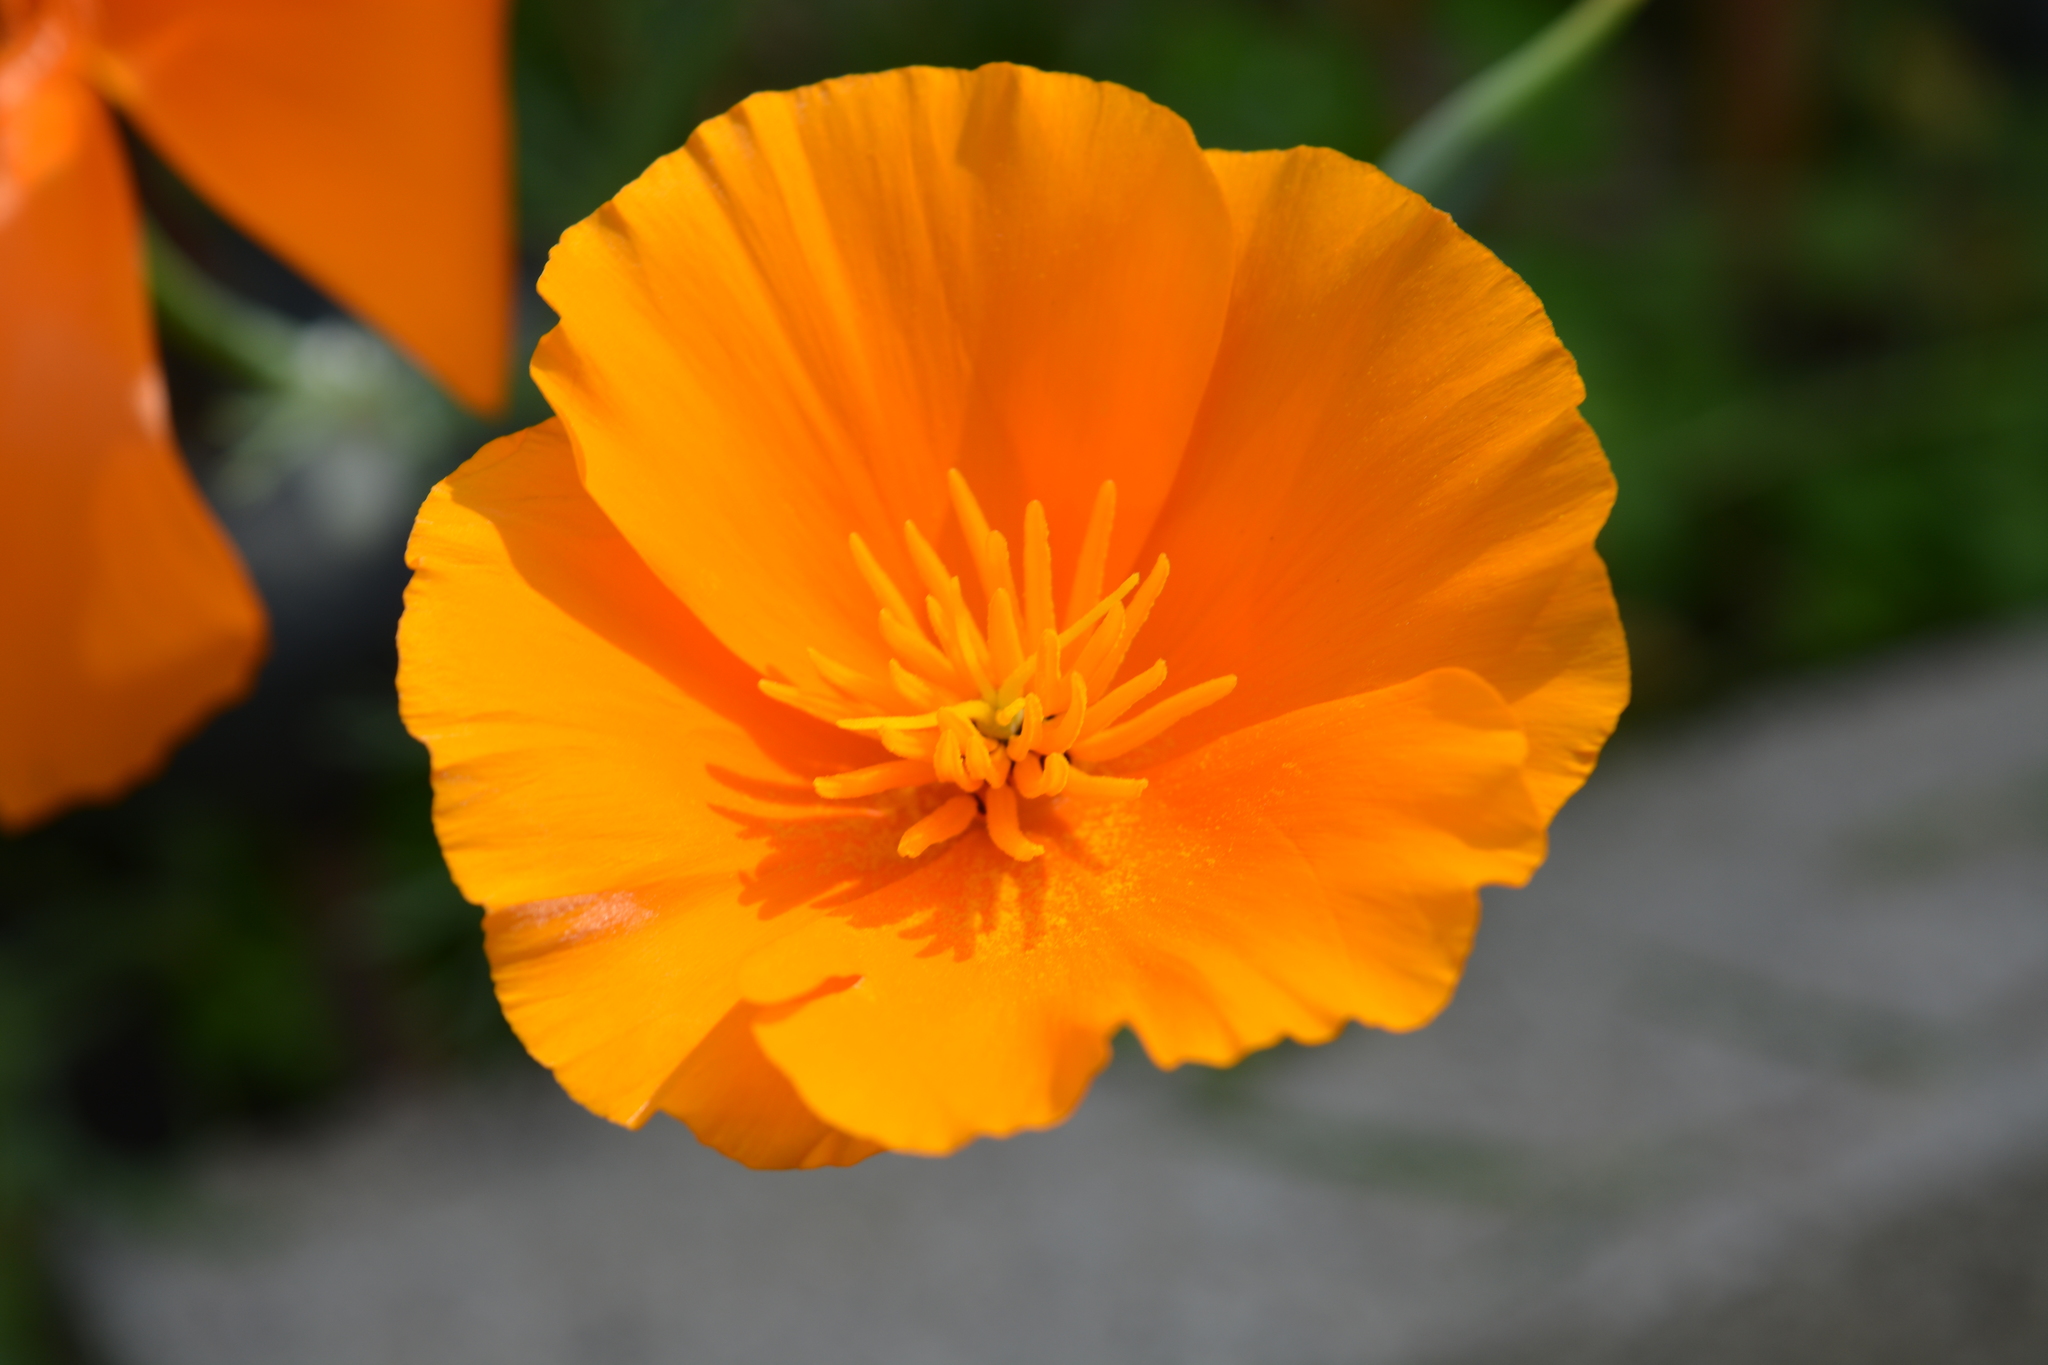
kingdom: Plantae
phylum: Tracheophyta
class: Magnoliopsida
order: Ranunculales
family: Papaveraceae
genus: Eschscholzia
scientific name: Eschscholzia californica
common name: California poppy
